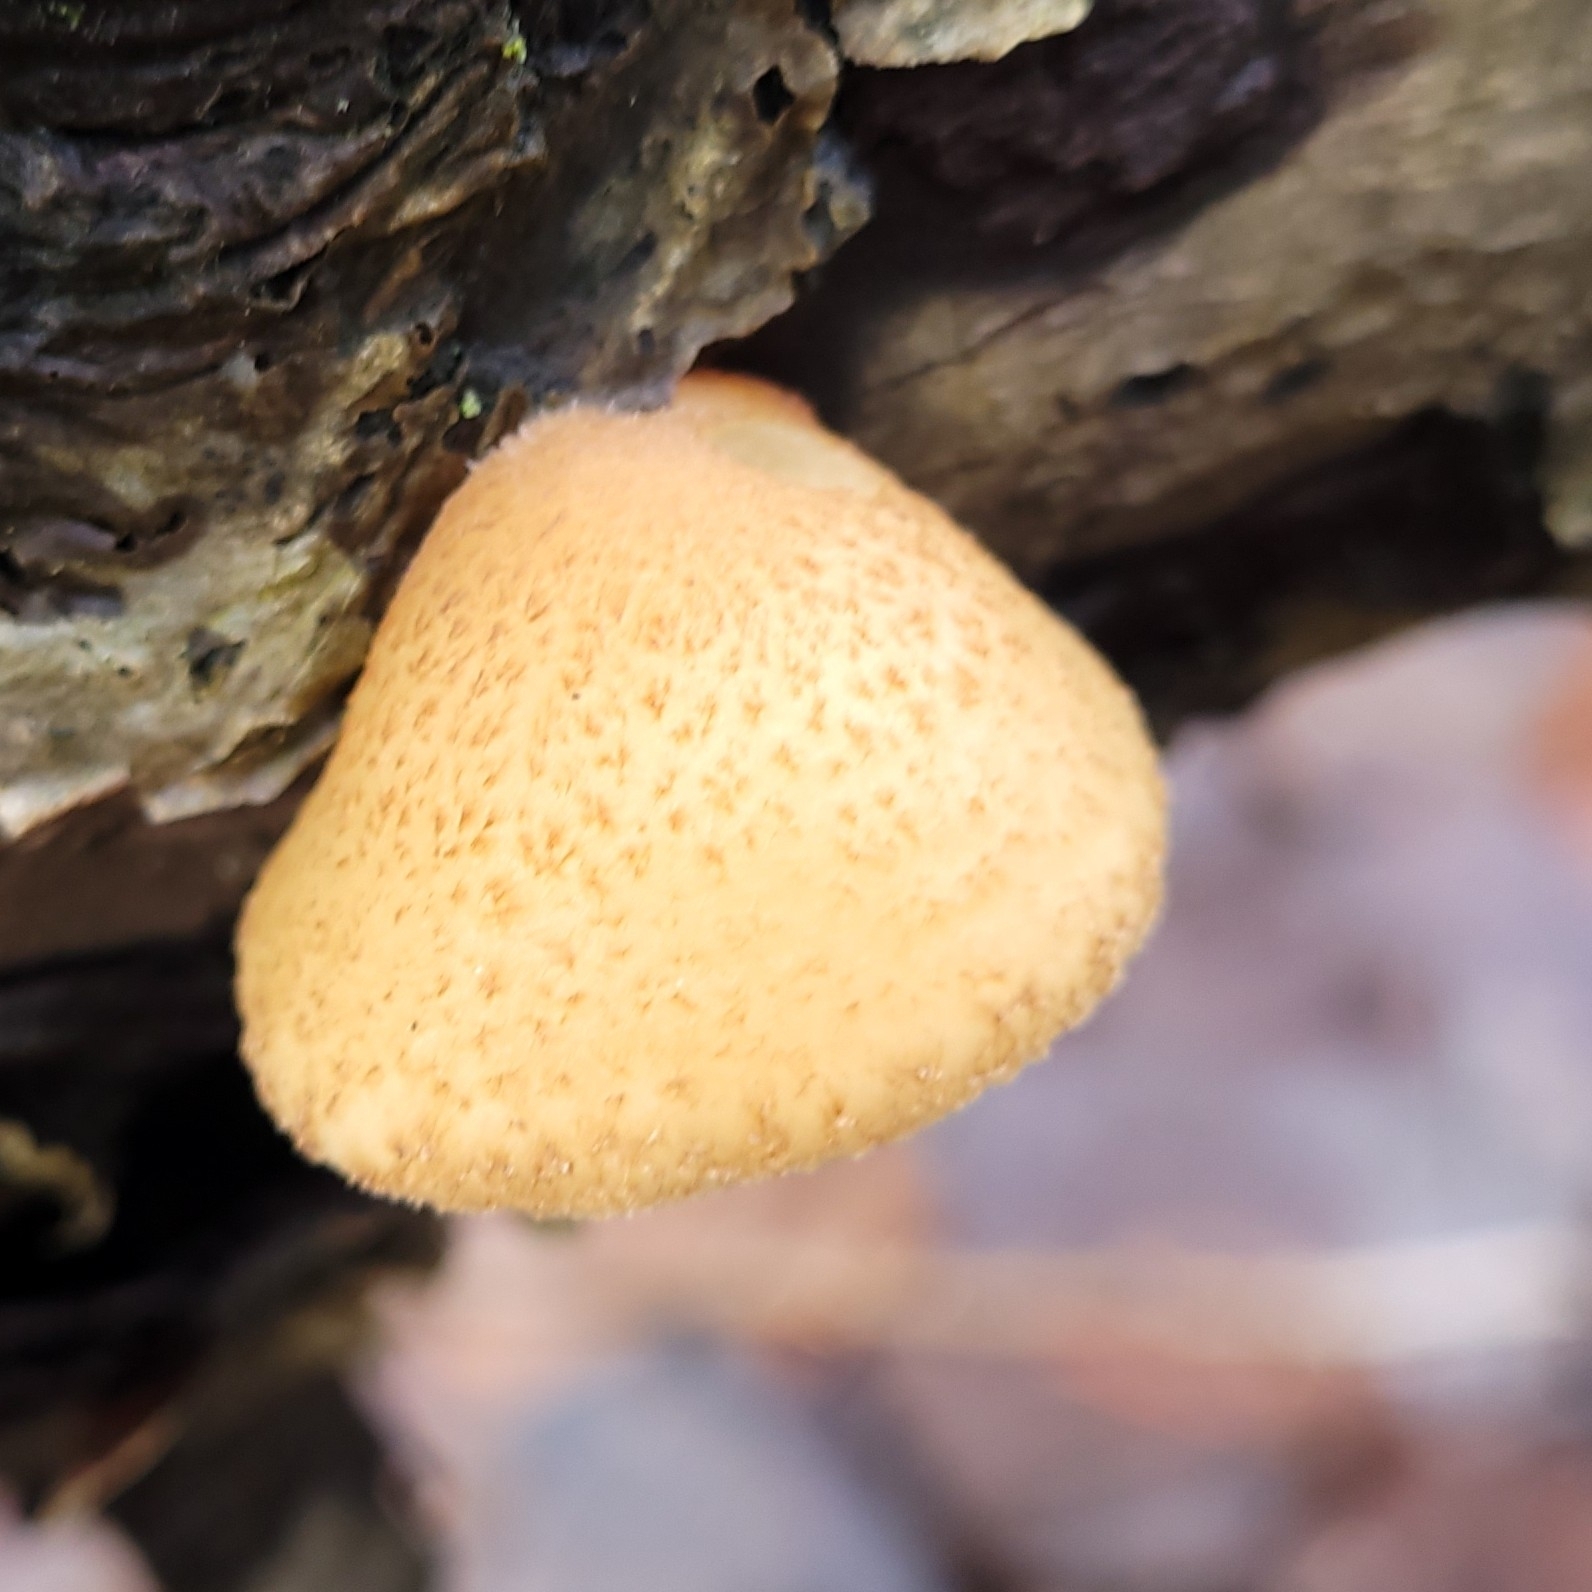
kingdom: Fungi
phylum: Basidiomycota
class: Agaricomycetes
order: Agaricales
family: Crepidotaceae
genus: Crepidotus
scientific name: Crepidotus calolepis
